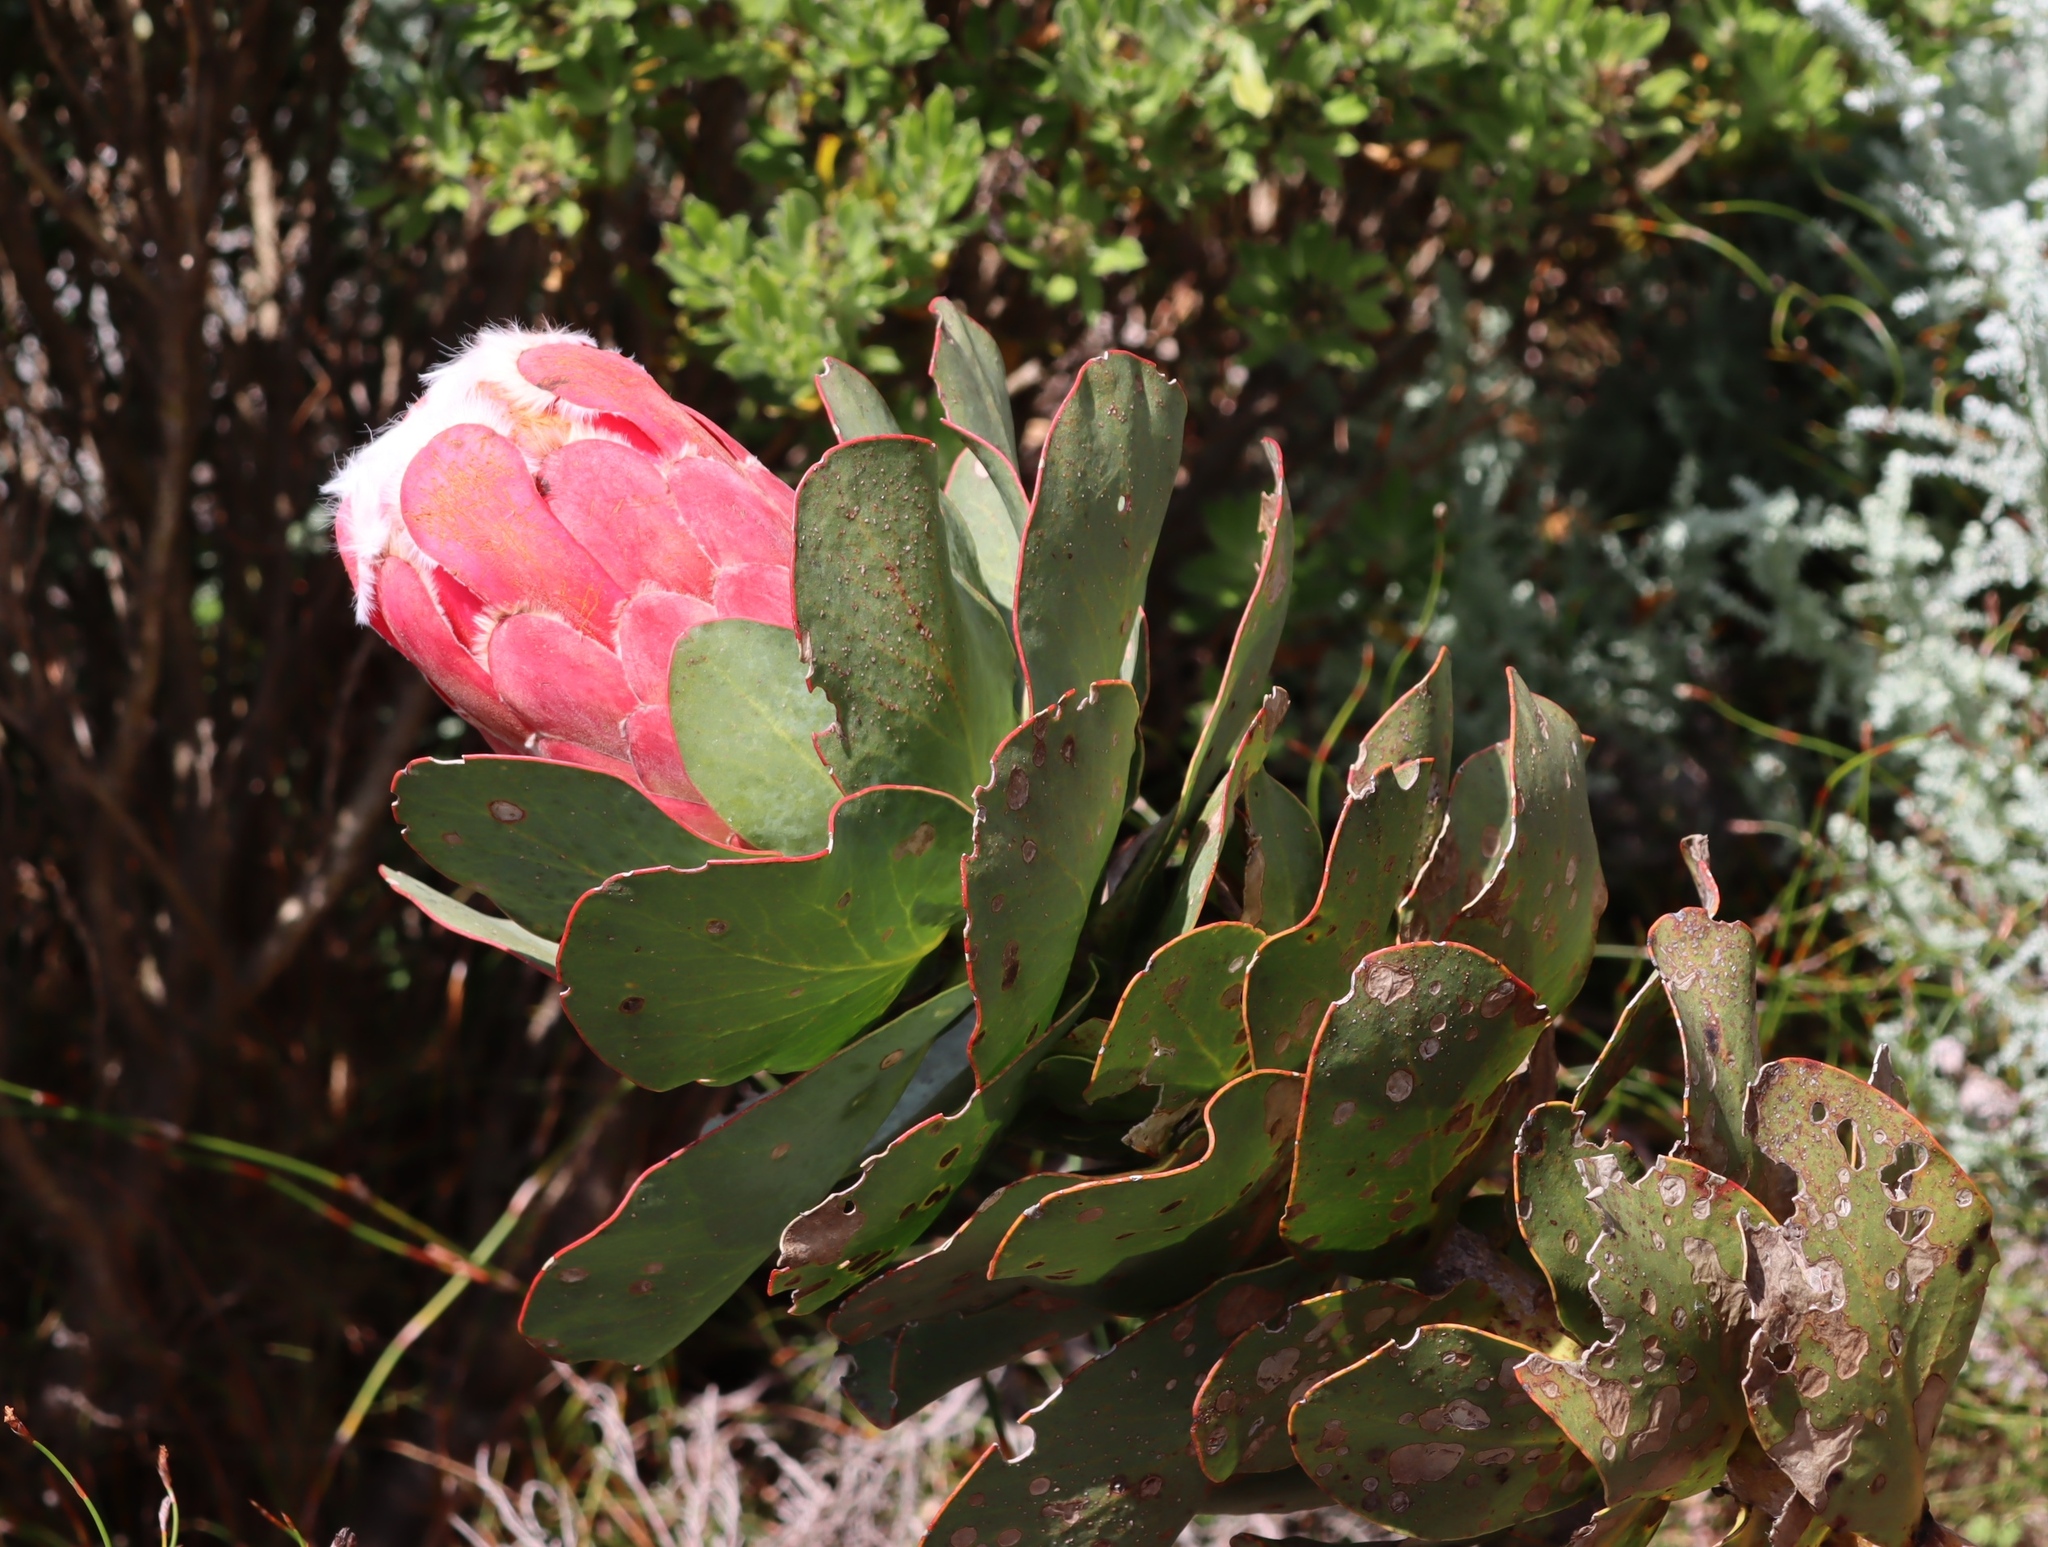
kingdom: Plantae
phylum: Tracheophyta
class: Magnoliopsida
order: Proteales
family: Proteaceae
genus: Protea
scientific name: Protea grandiceps
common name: Red sugarbush
